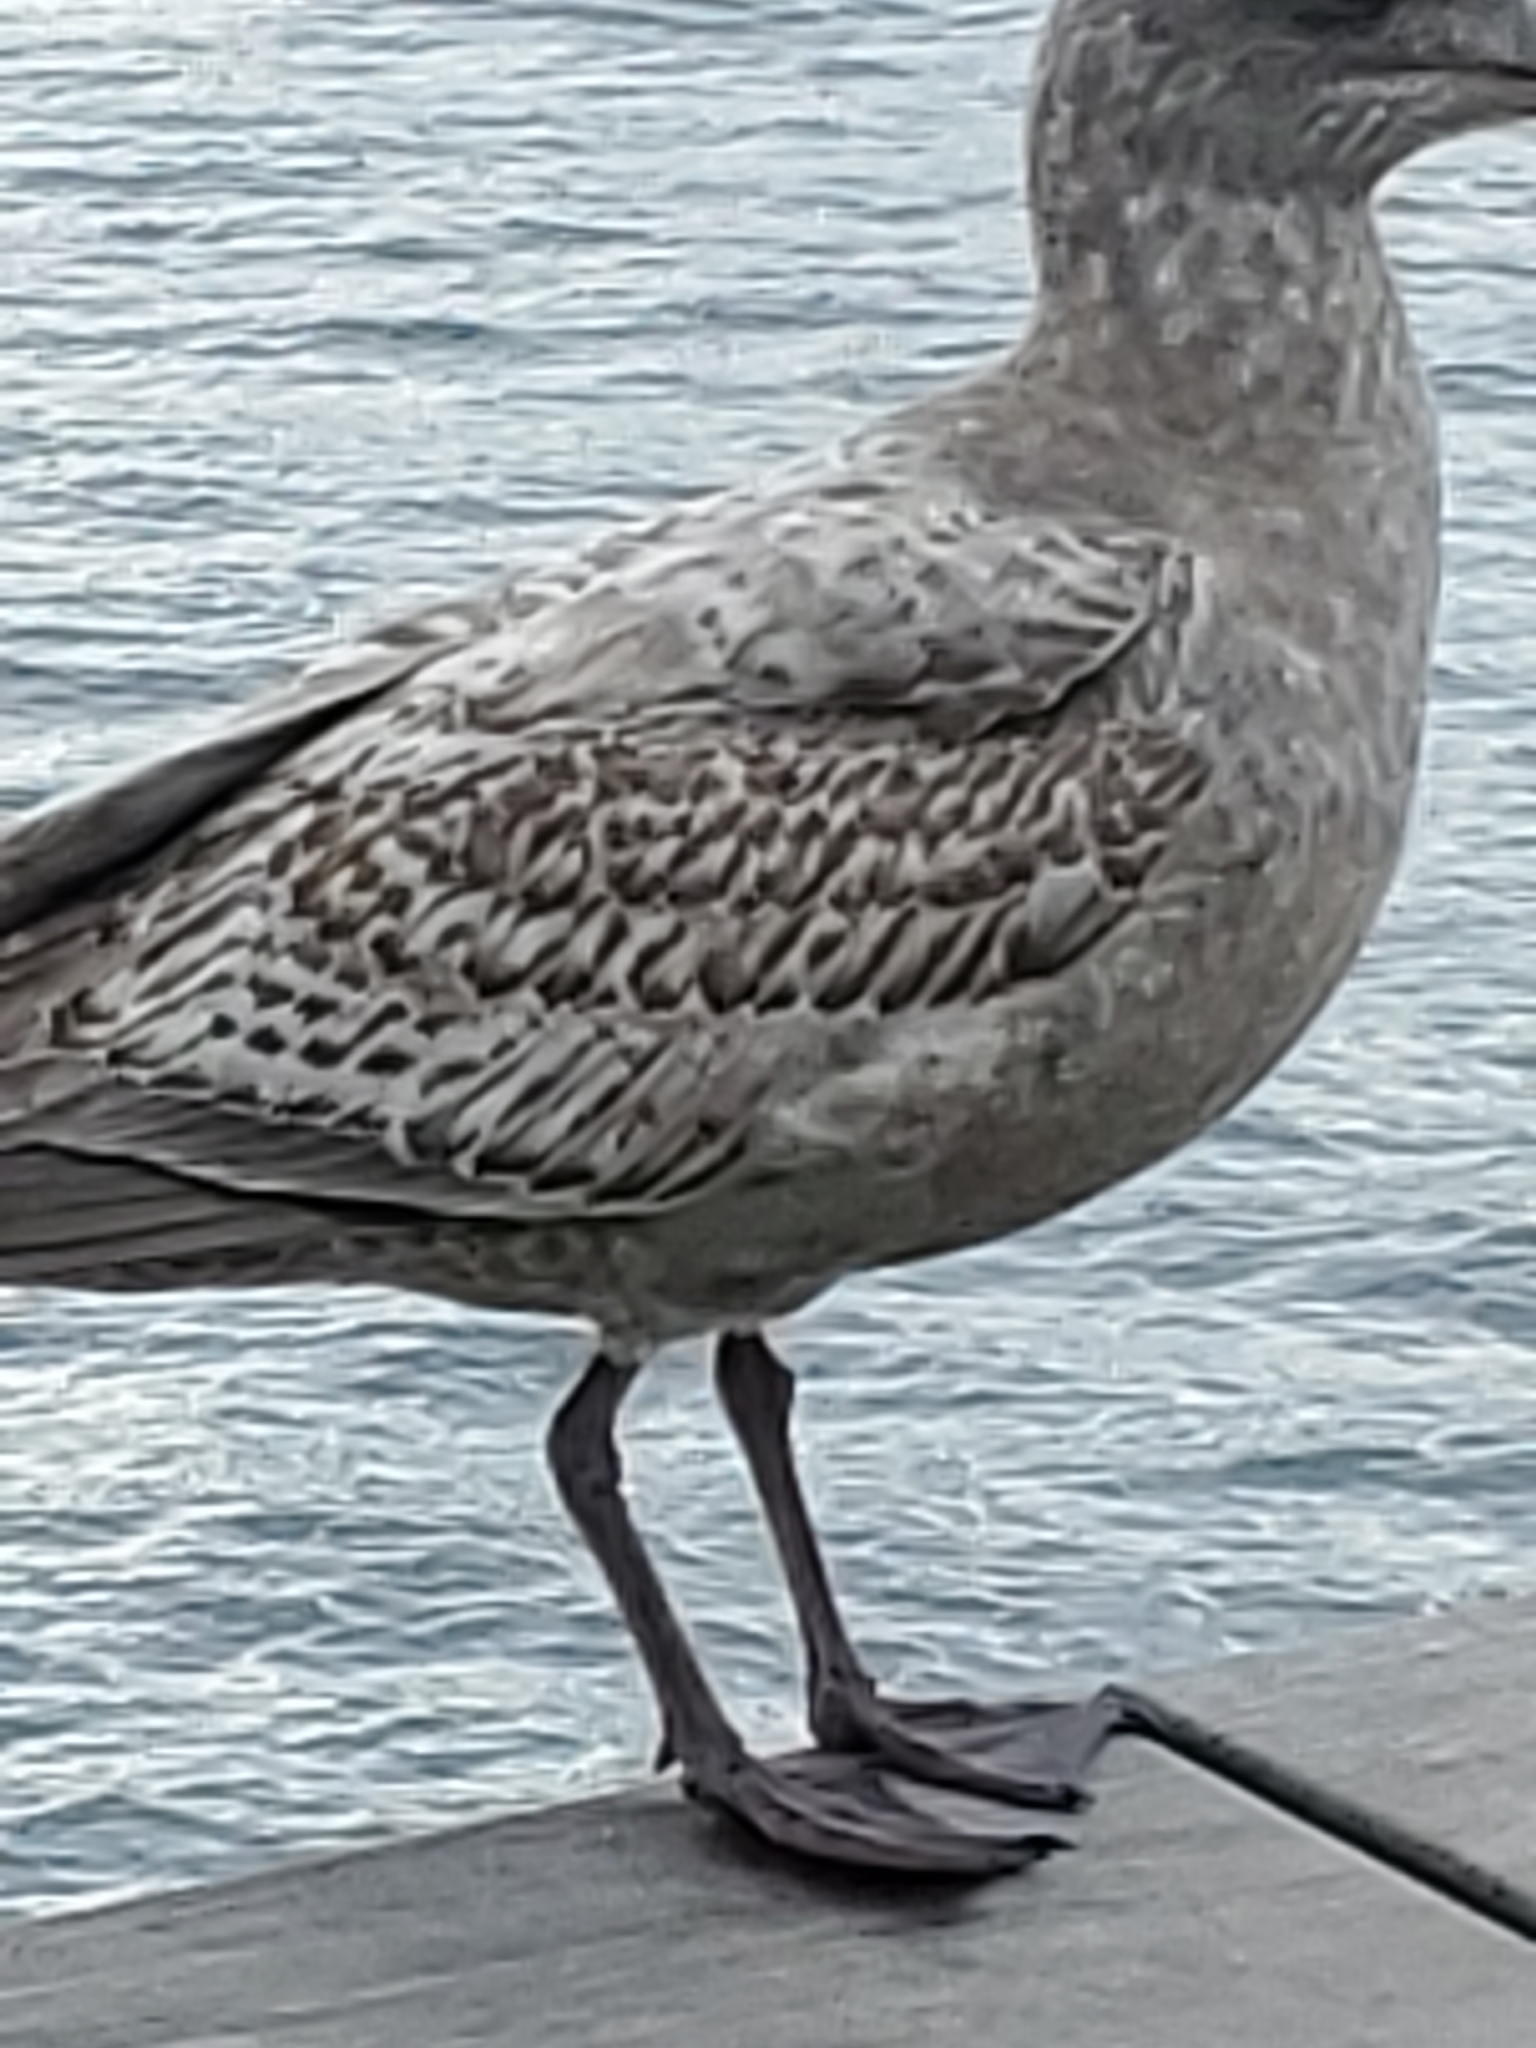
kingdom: Animalia
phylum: Chordata
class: Aves
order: Charadriiformes
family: Laridae
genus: Larus
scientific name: Larus argentatus
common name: Herring gull
